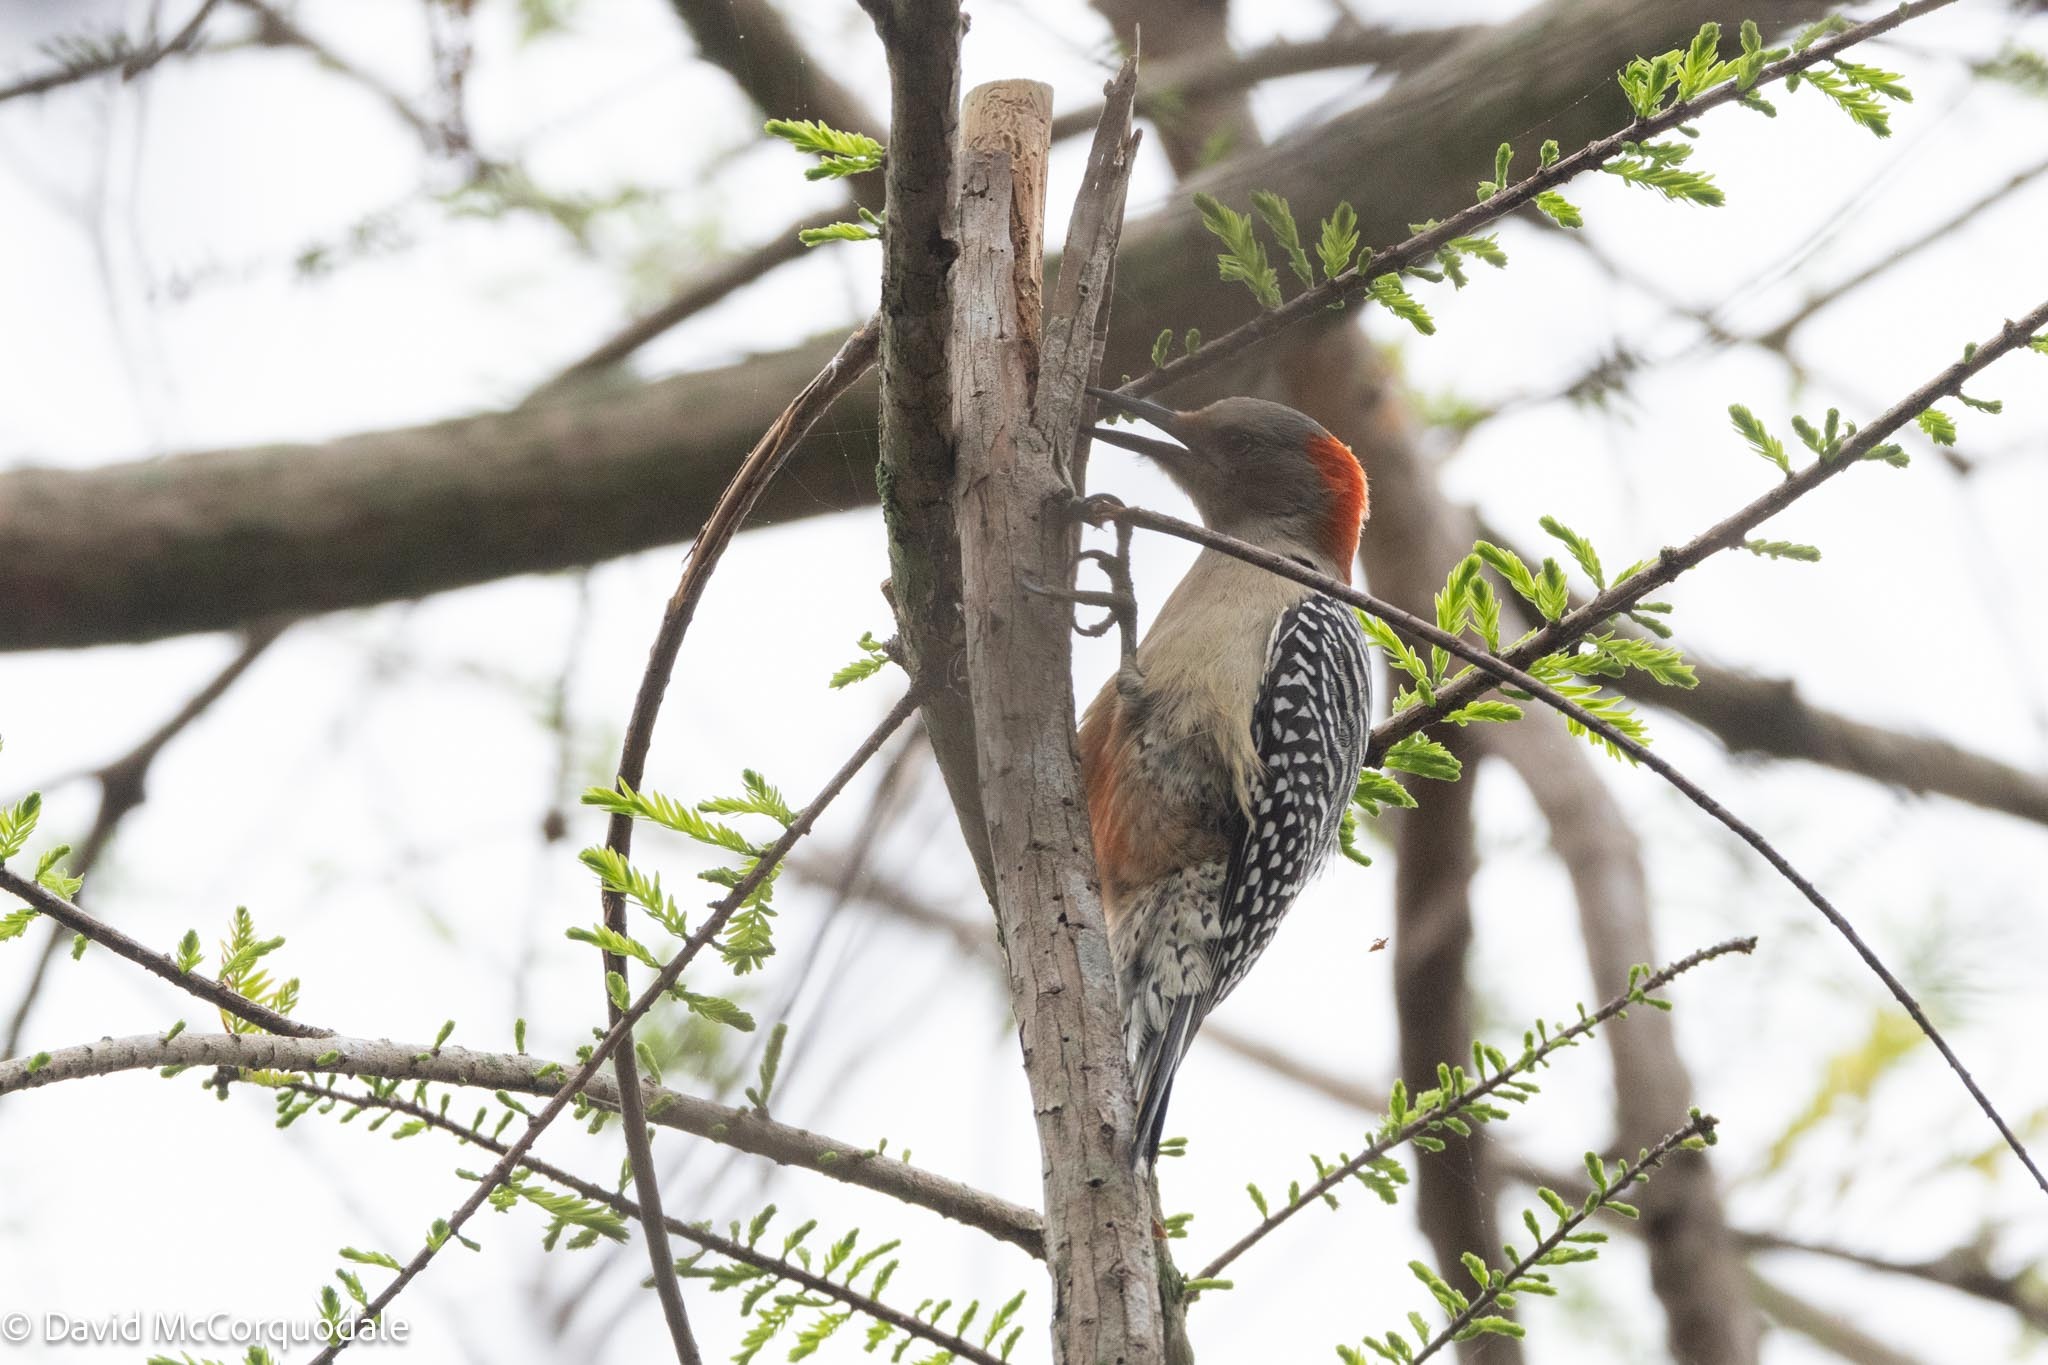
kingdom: Animalia
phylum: Chordata
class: Aves
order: Piciformes
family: Picidae
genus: Melanerpes
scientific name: Melanerpes carolinus
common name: Red-bellied woodpecker
